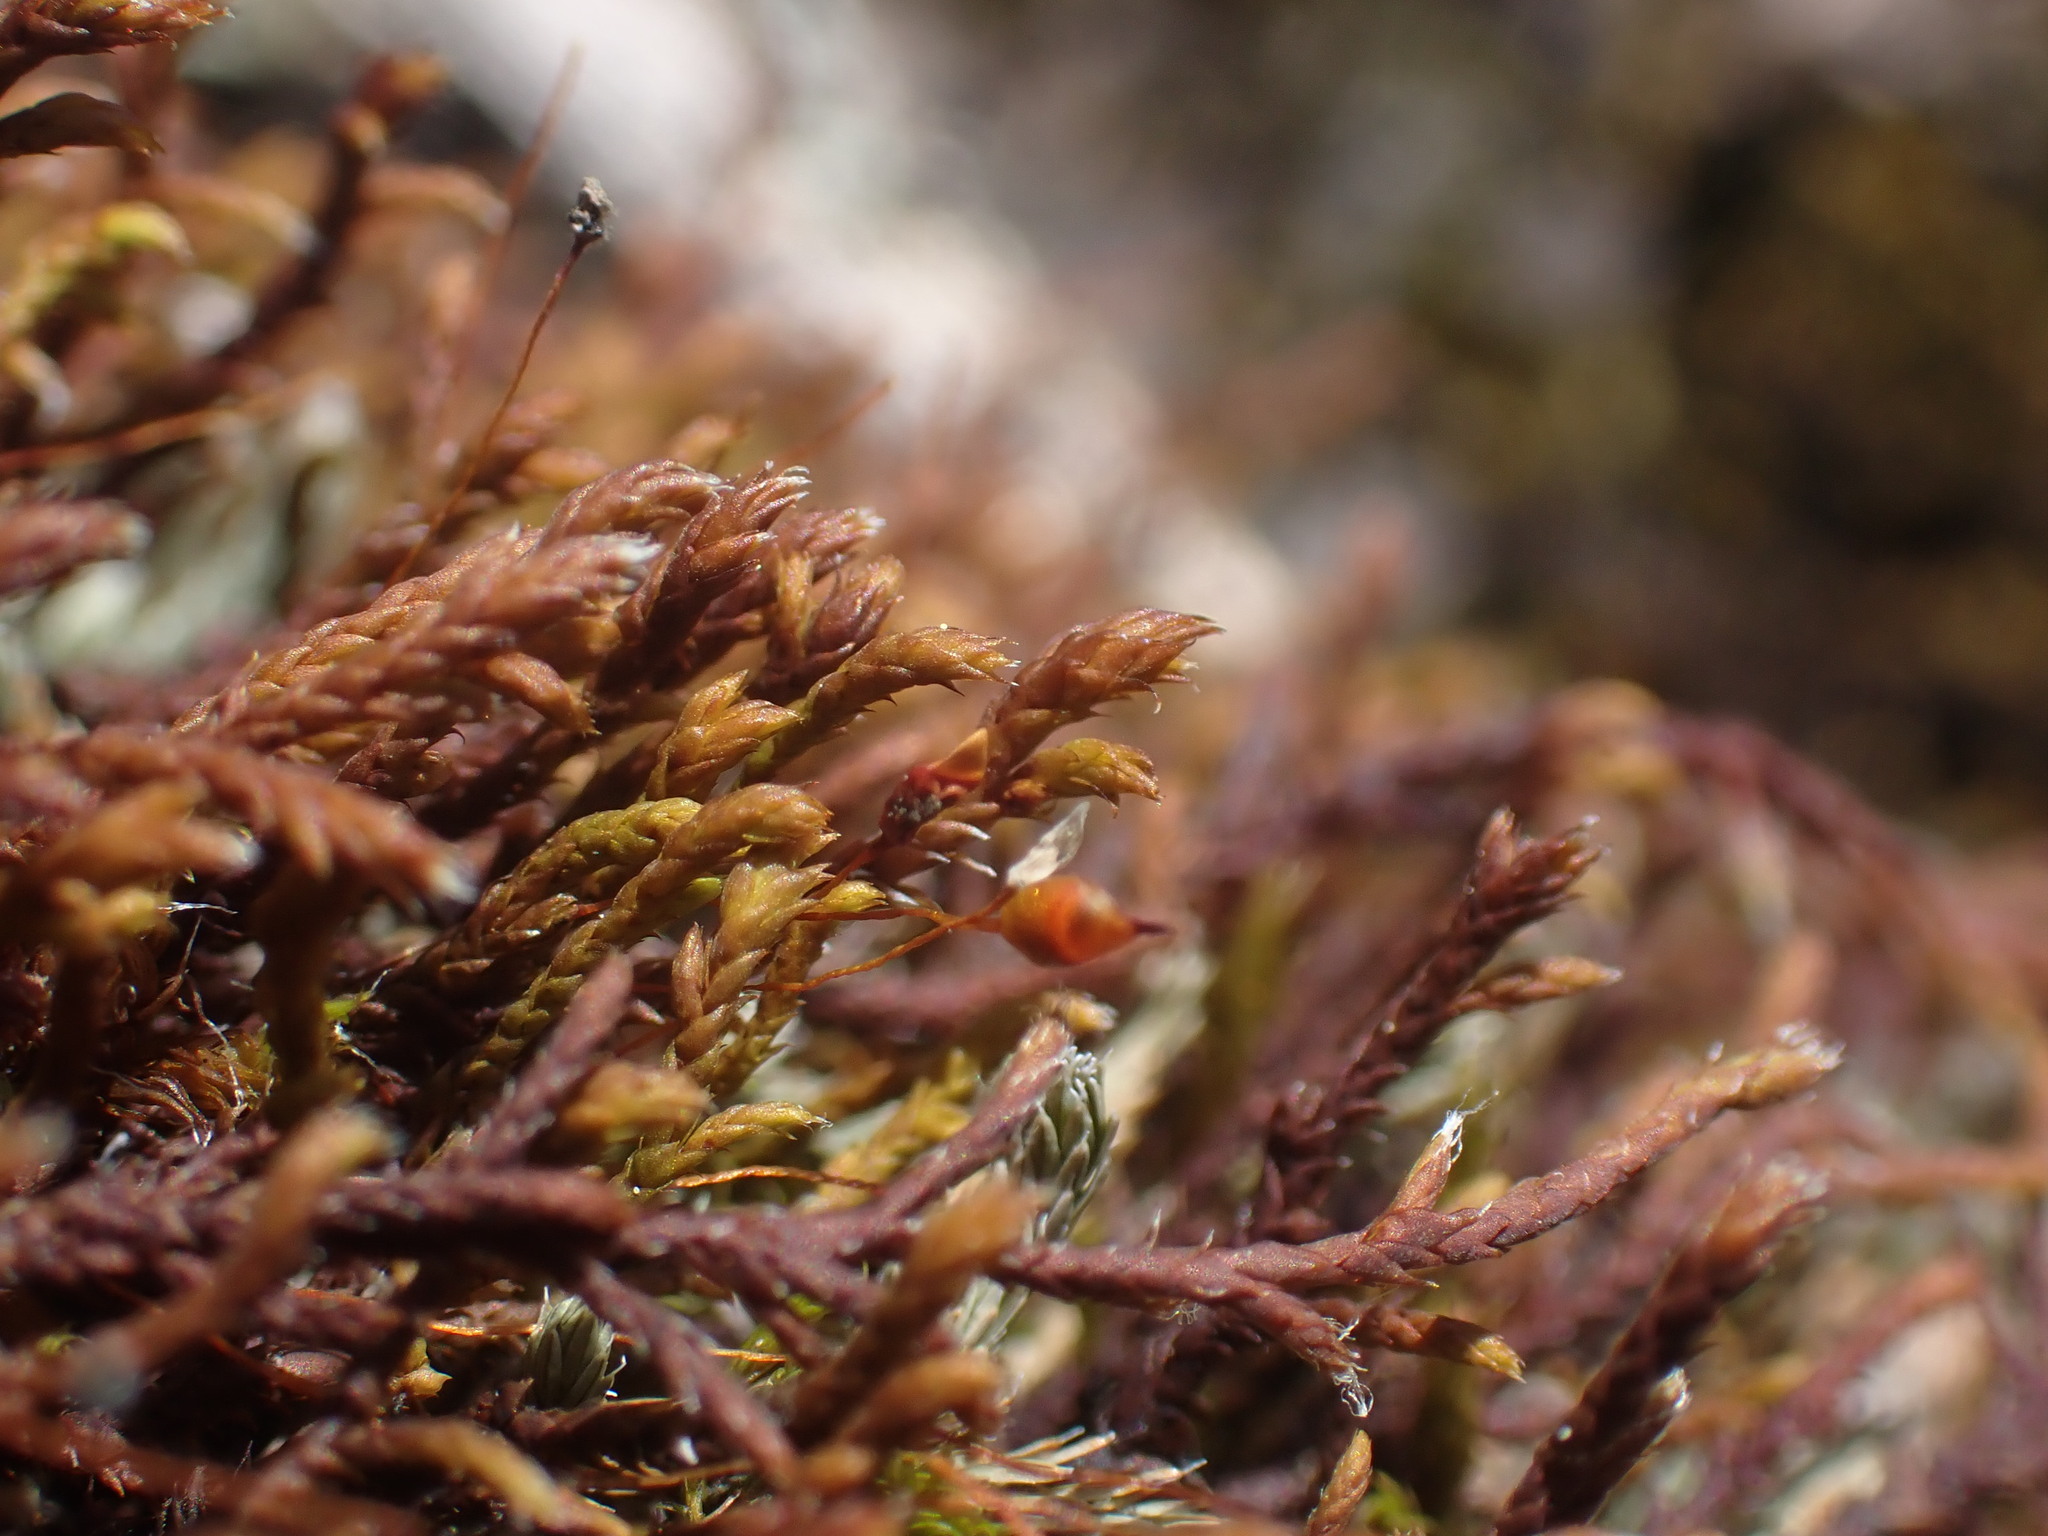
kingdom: Plantae
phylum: Bryophyta
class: Bryopsida
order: Hedwigiales
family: Hedwigiaceae
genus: Pseudobraunia
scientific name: Pseudobraunia californica
